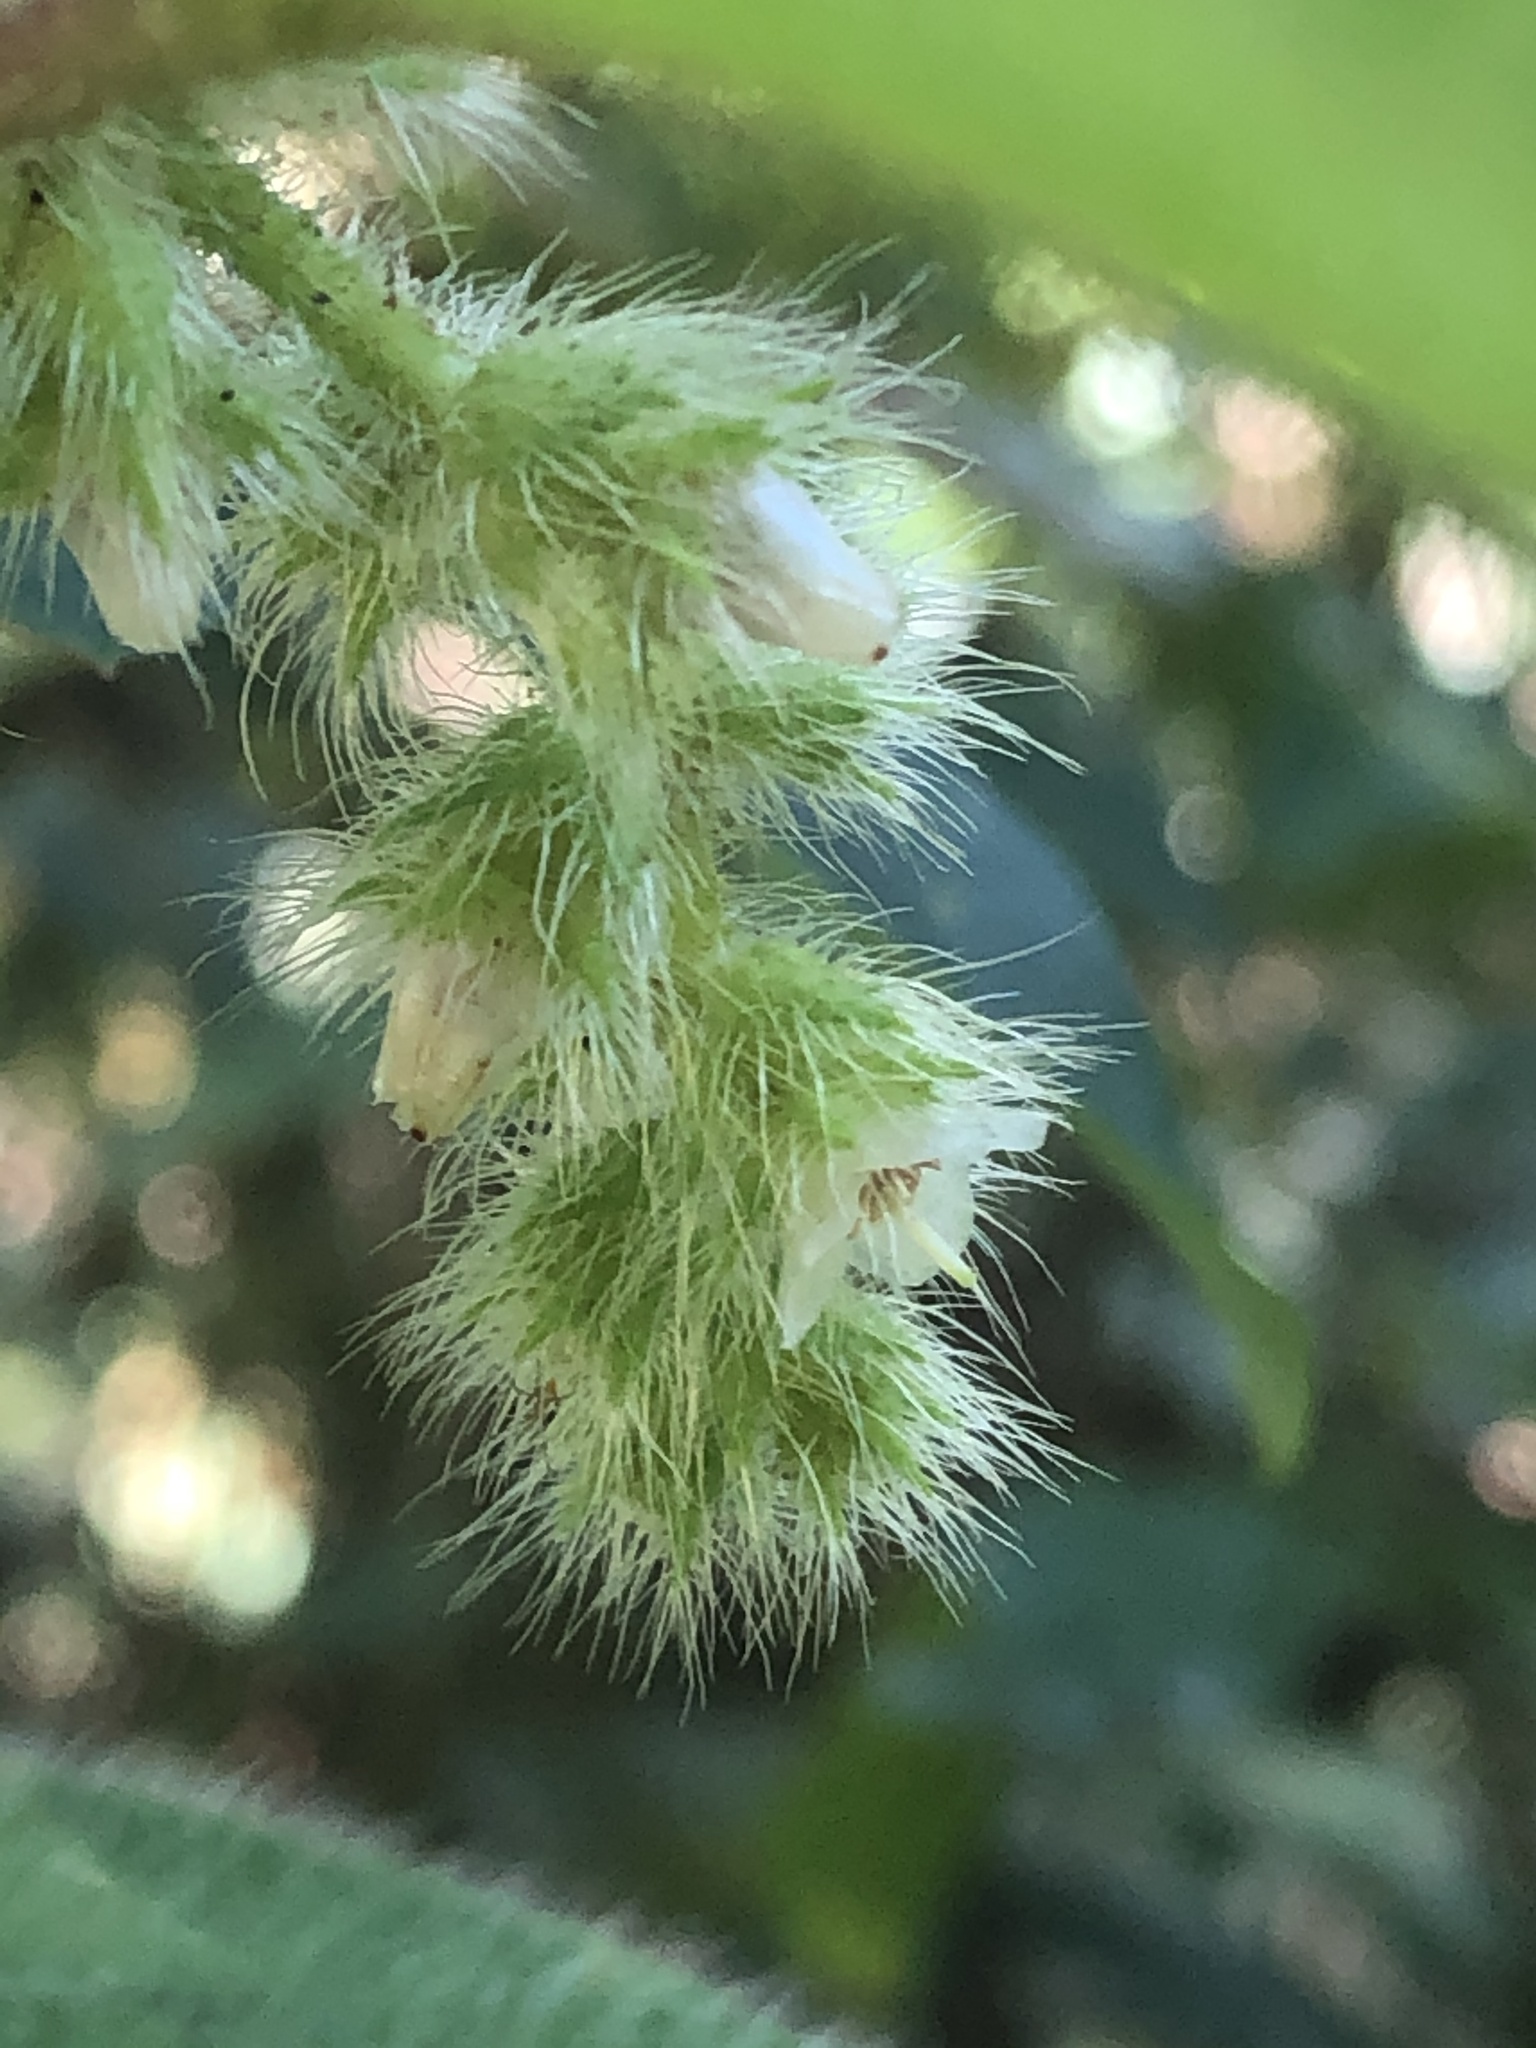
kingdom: Plantae
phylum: Tracheophyta
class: Magnoliopsida
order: Myrtales
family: Melastomataceae
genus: Miconia
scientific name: Miconia dependens
